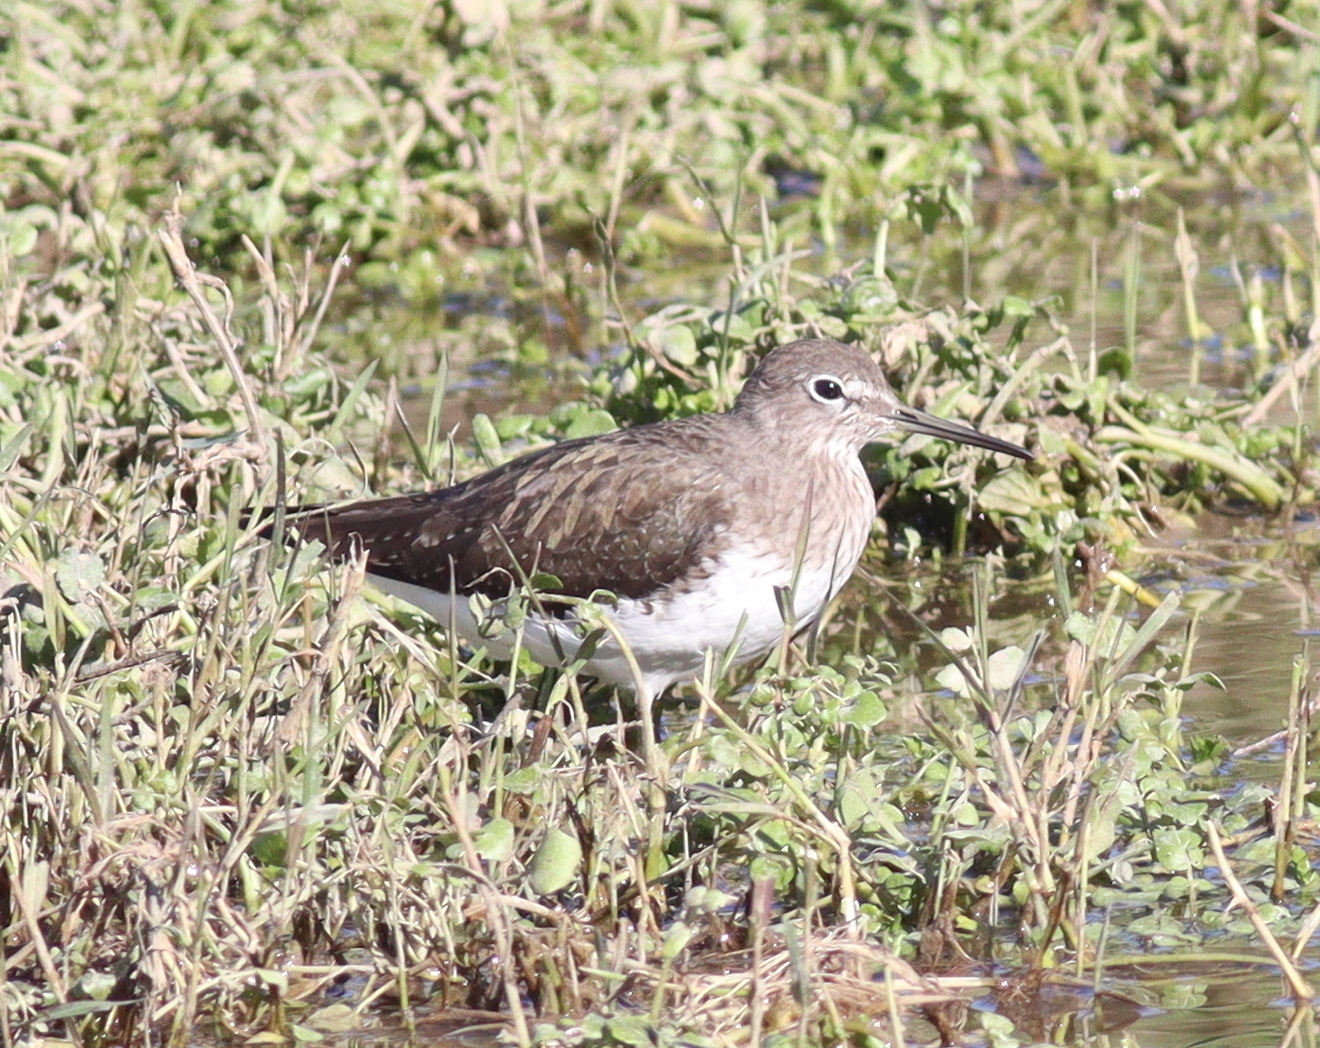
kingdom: Animalia
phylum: Chordata
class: Aves
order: Charadriiformes
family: Scolopacidae
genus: Tringa
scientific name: Tringa ochropus
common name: Green sandpiper
